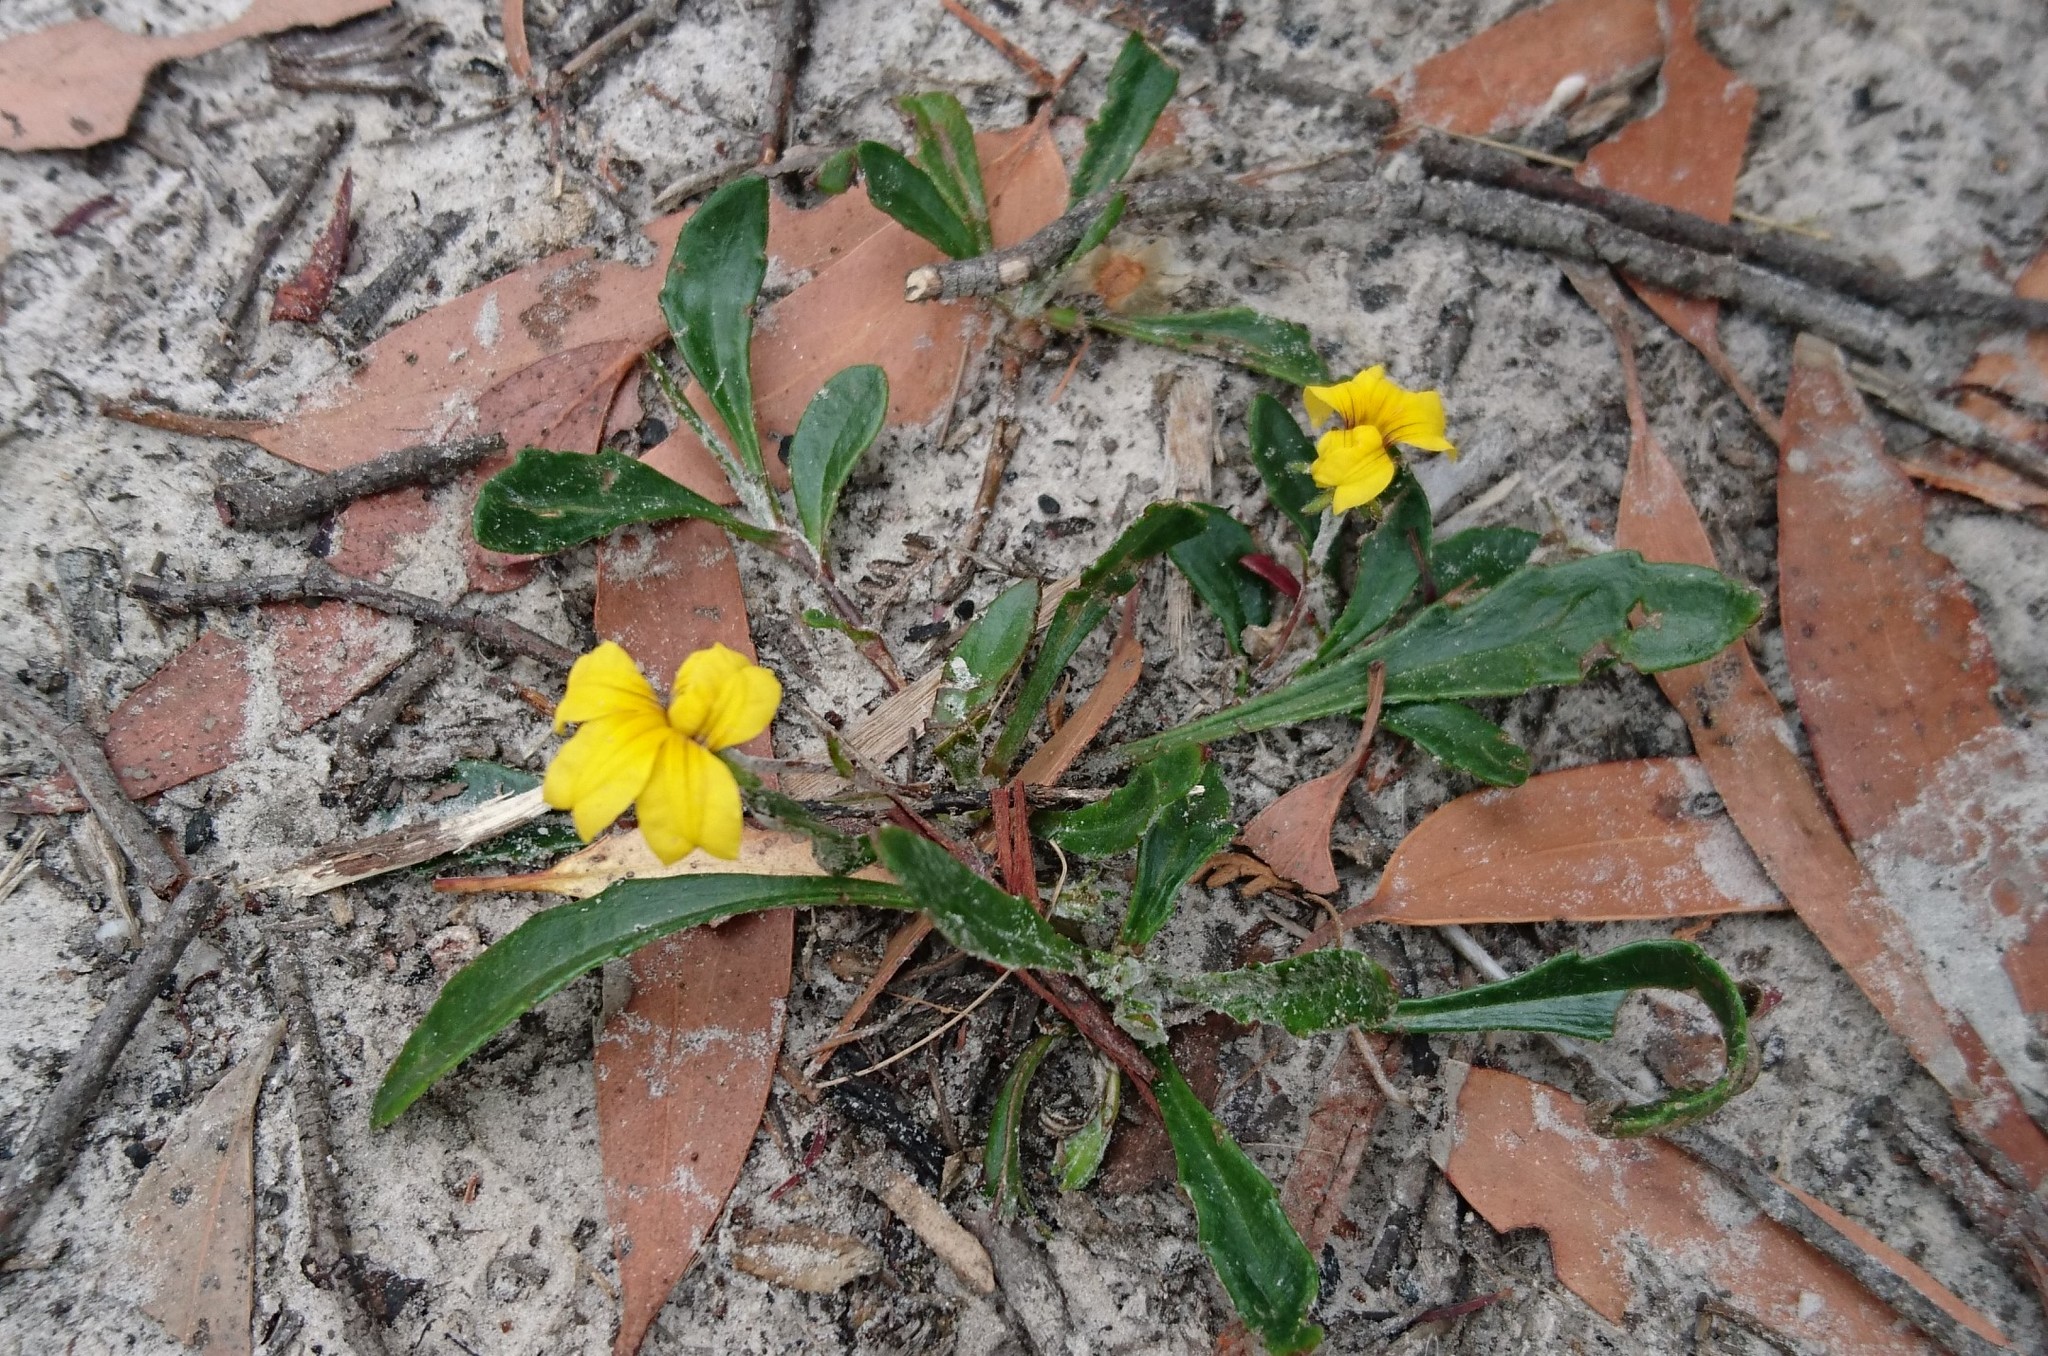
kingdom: Plantae
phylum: Tracheophyta
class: Magnoliopsida
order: Asterales
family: Goodeniaceae
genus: Goodenia
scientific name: Goodenia geniculata
